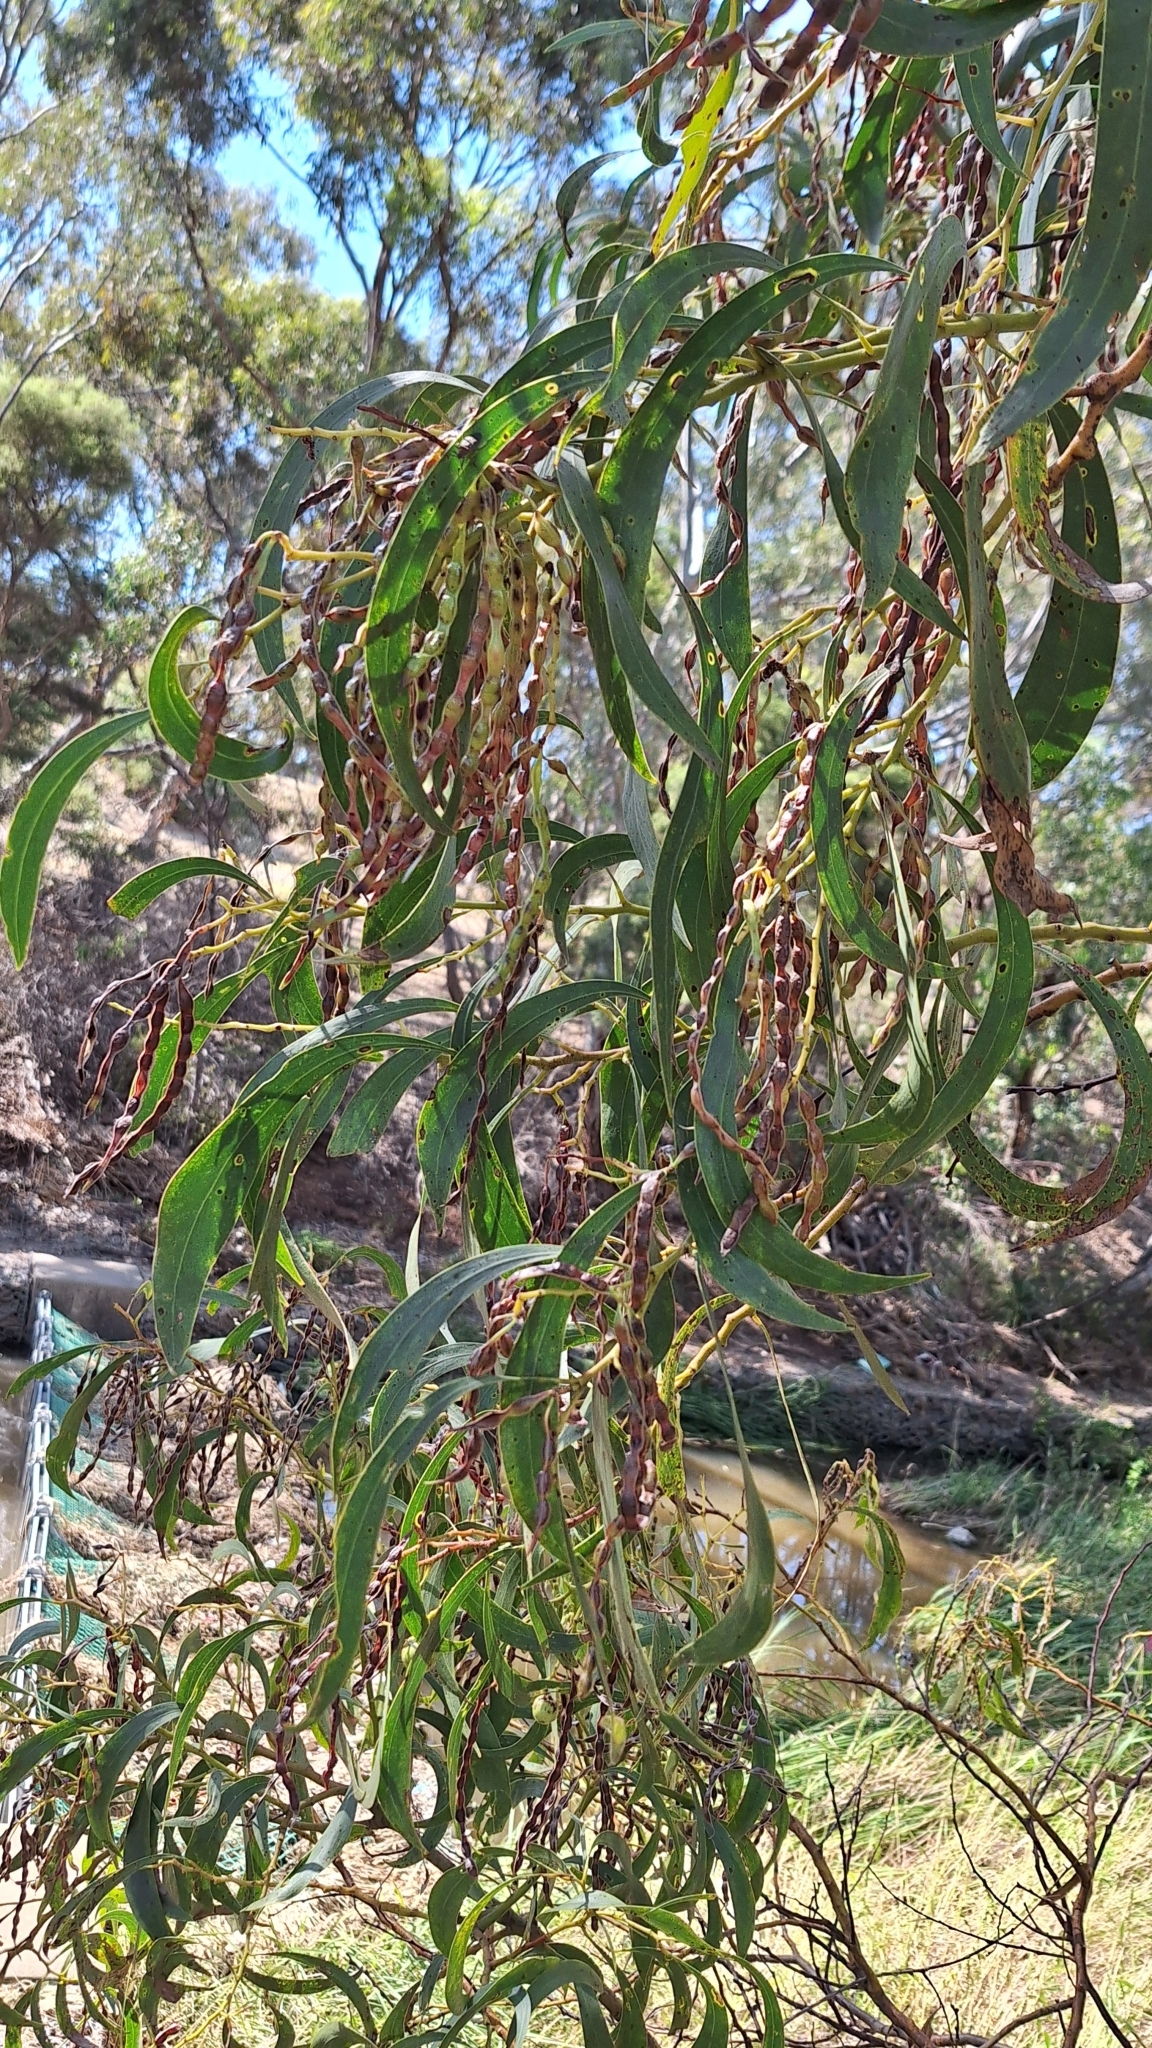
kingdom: Plantae
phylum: Tracheophyta
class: Magnoliopsida
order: Fabales
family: Fabaceae
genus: Acacia
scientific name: Acacia pycnantha
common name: Golden wattle
